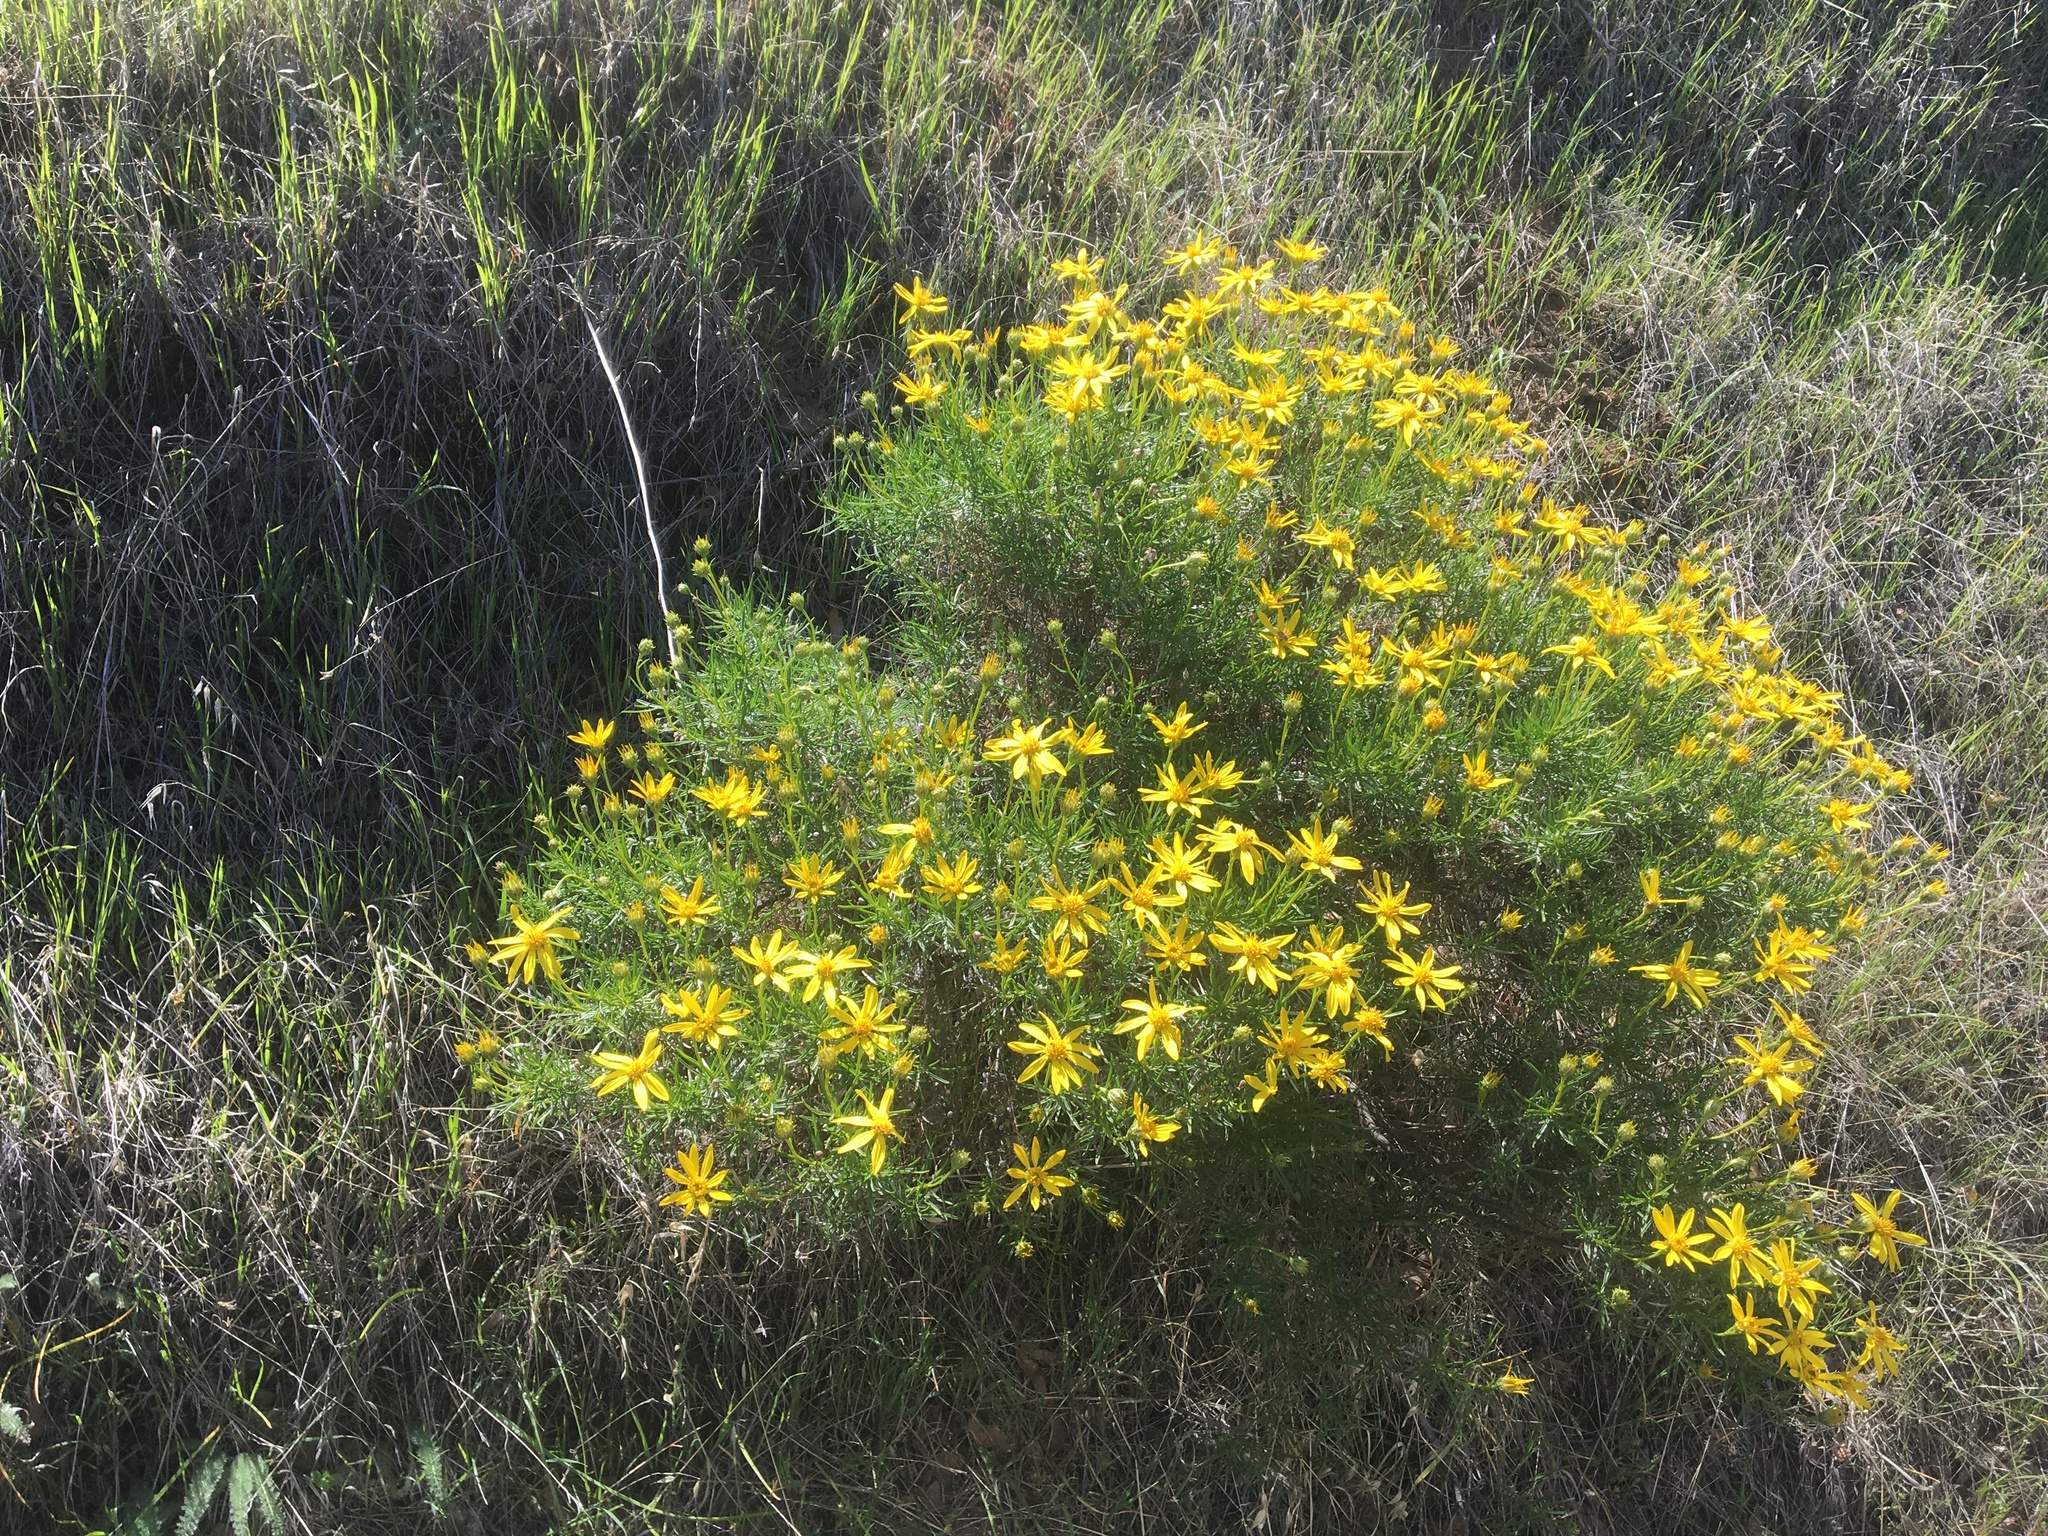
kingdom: Plantae
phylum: Tracheophyta
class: Magnoliopsida
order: Asterales
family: Asteraceae
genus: Ericameria
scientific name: Ericameria linearifolia
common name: Interior goldenbush
